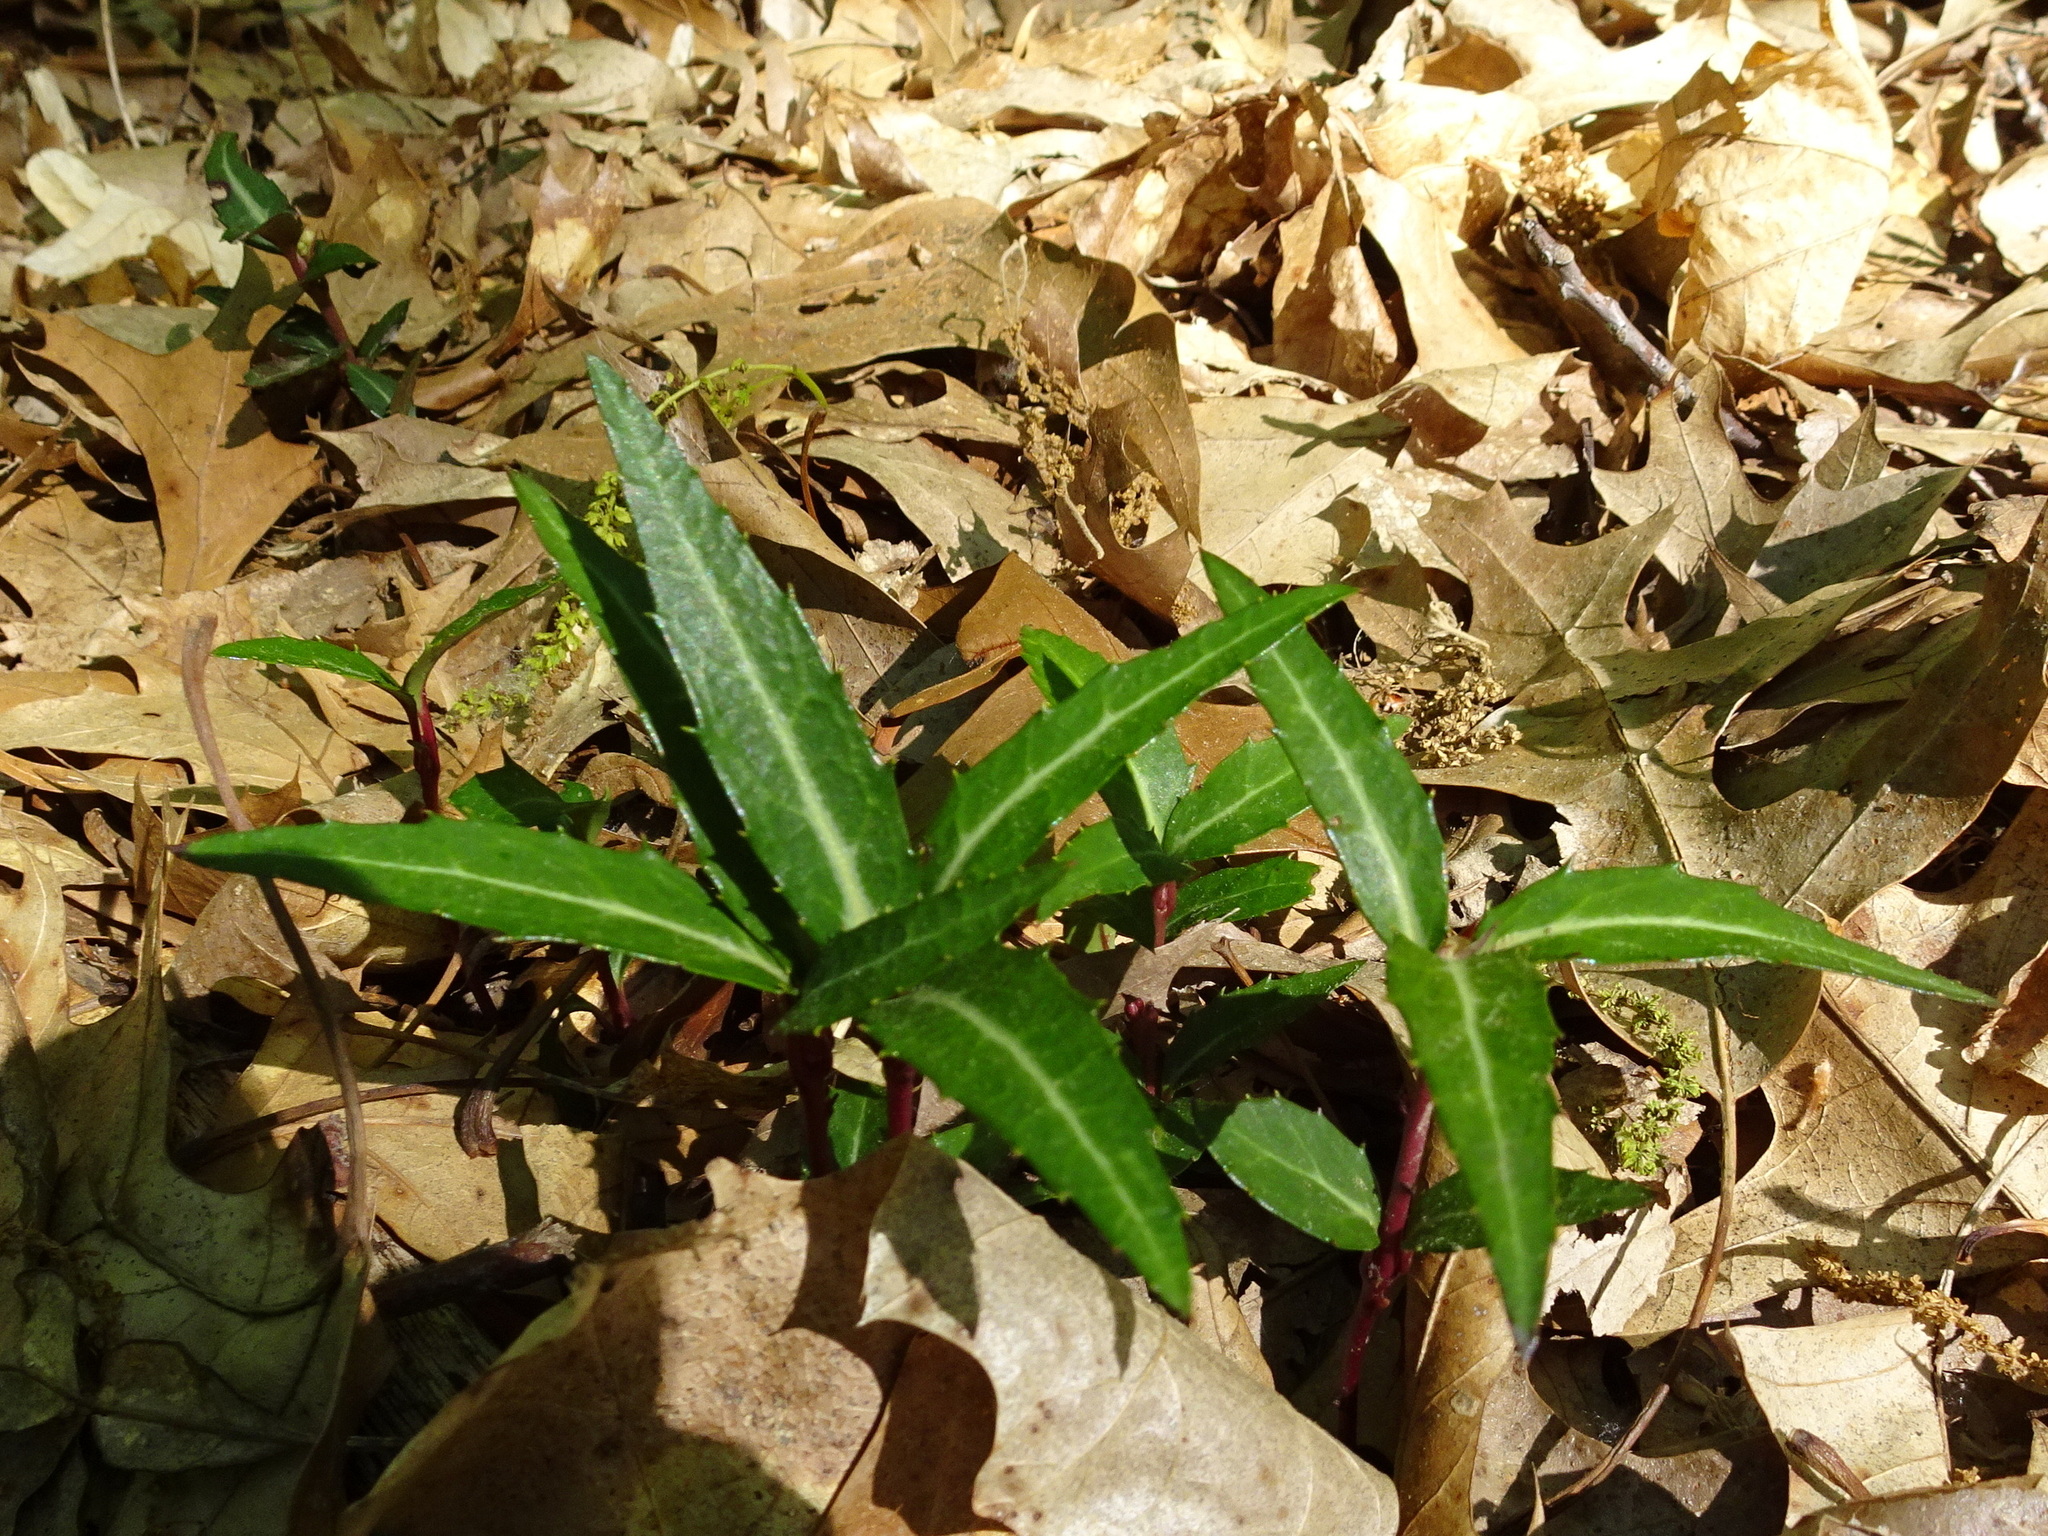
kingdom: Plantae
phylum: Tracheophyta
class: Magnoliopsida
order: Ericales
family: Ericaceae
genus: Chimaphila
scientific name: Chimaphila maculata
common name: Spotted pipsissewa
